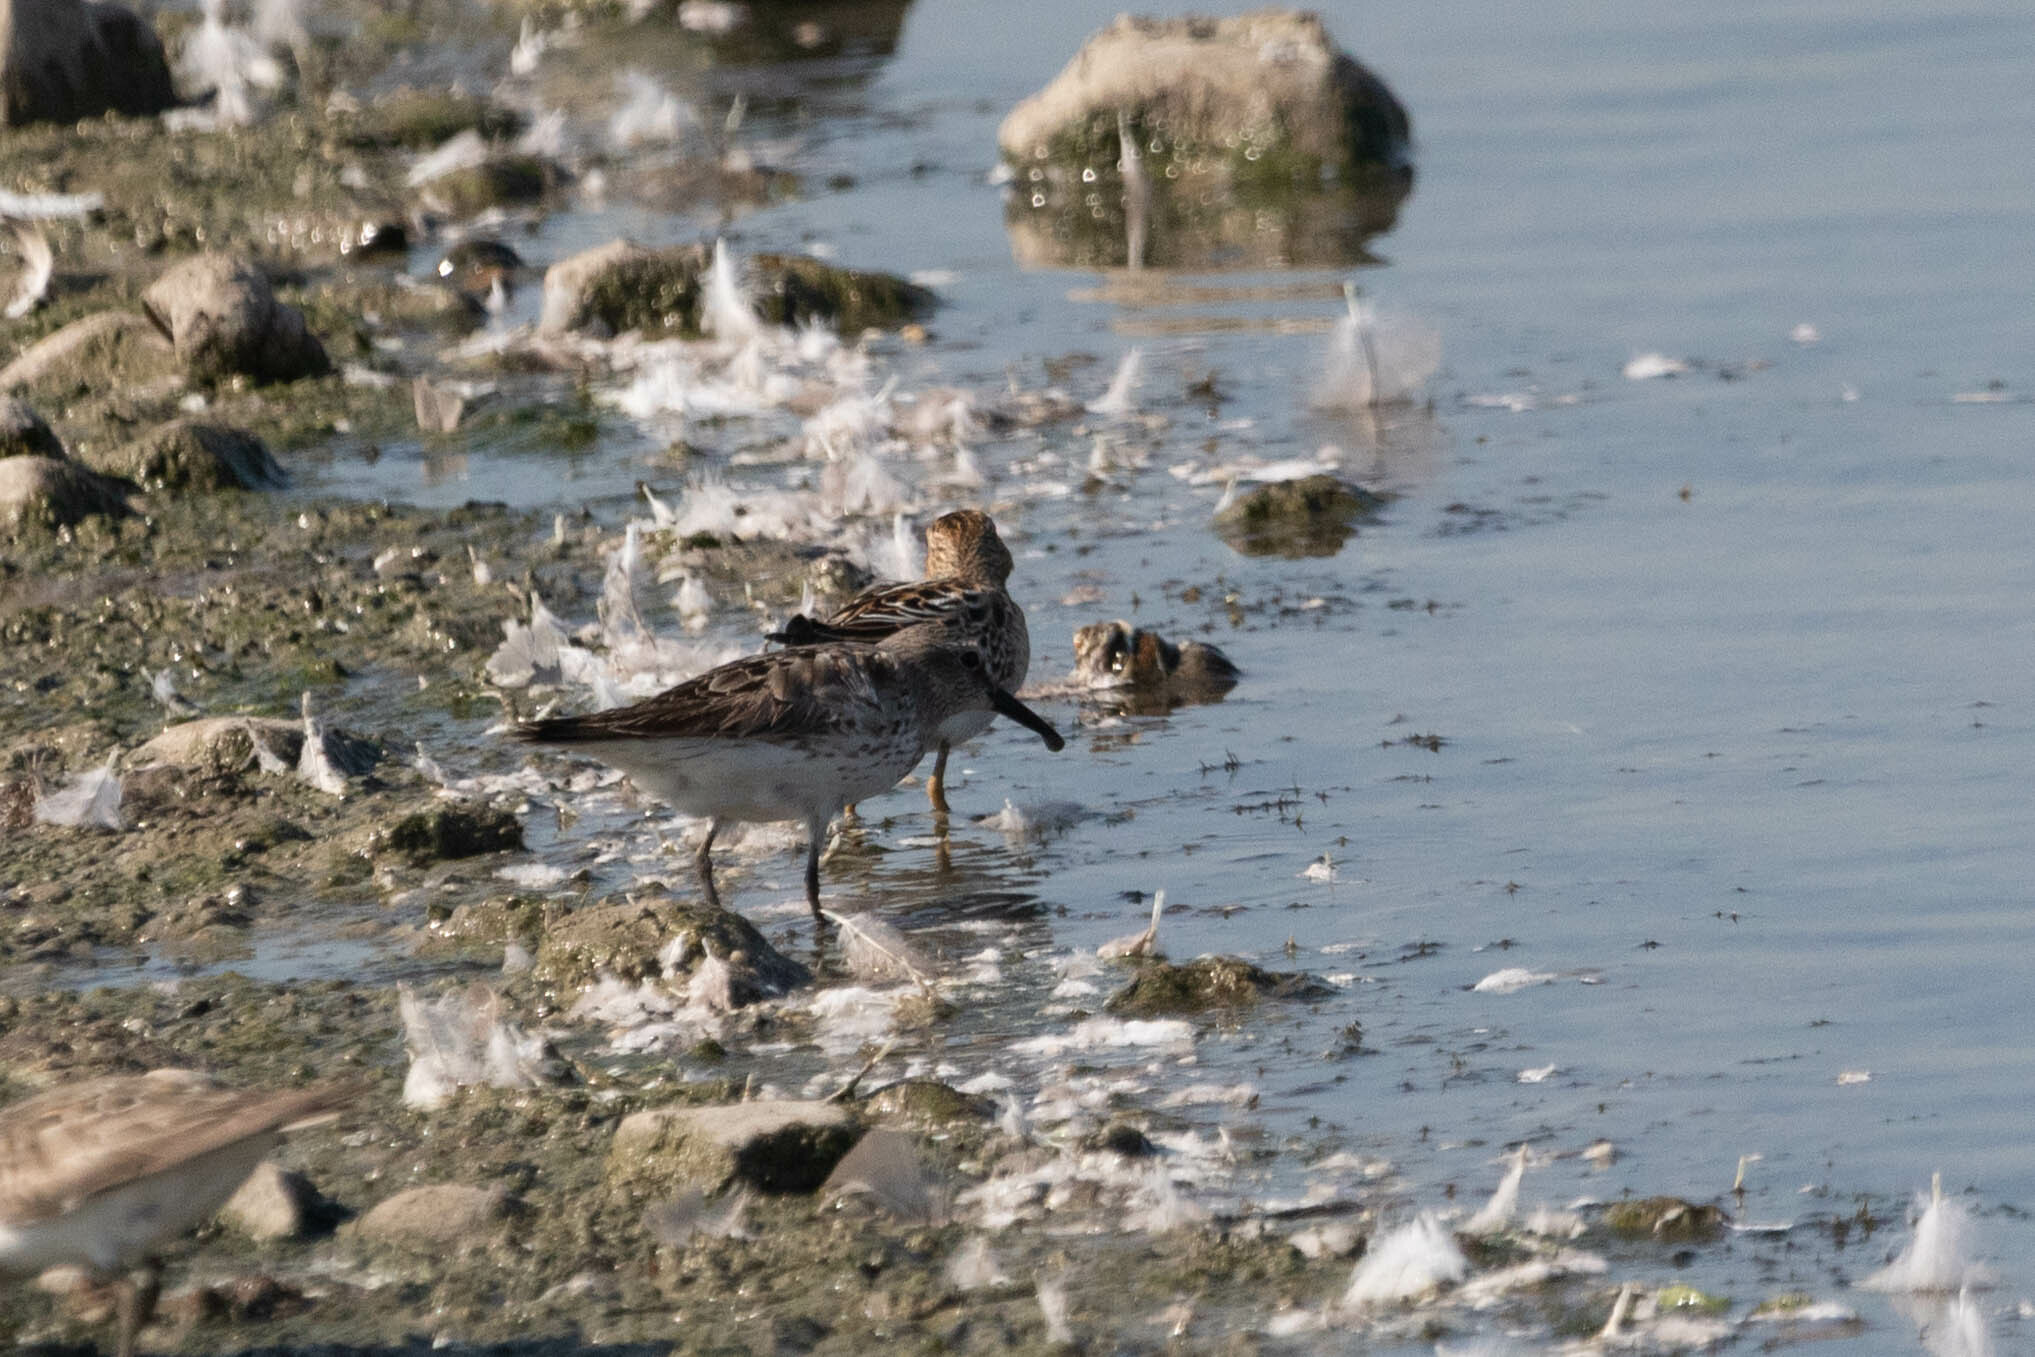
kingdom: Animalia
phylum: Chordata
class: Aves
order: Charadriiformes
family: Scolopacidae
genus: Calidris
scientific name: Calidris fuscicollis
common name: White-rumped sandpiper
